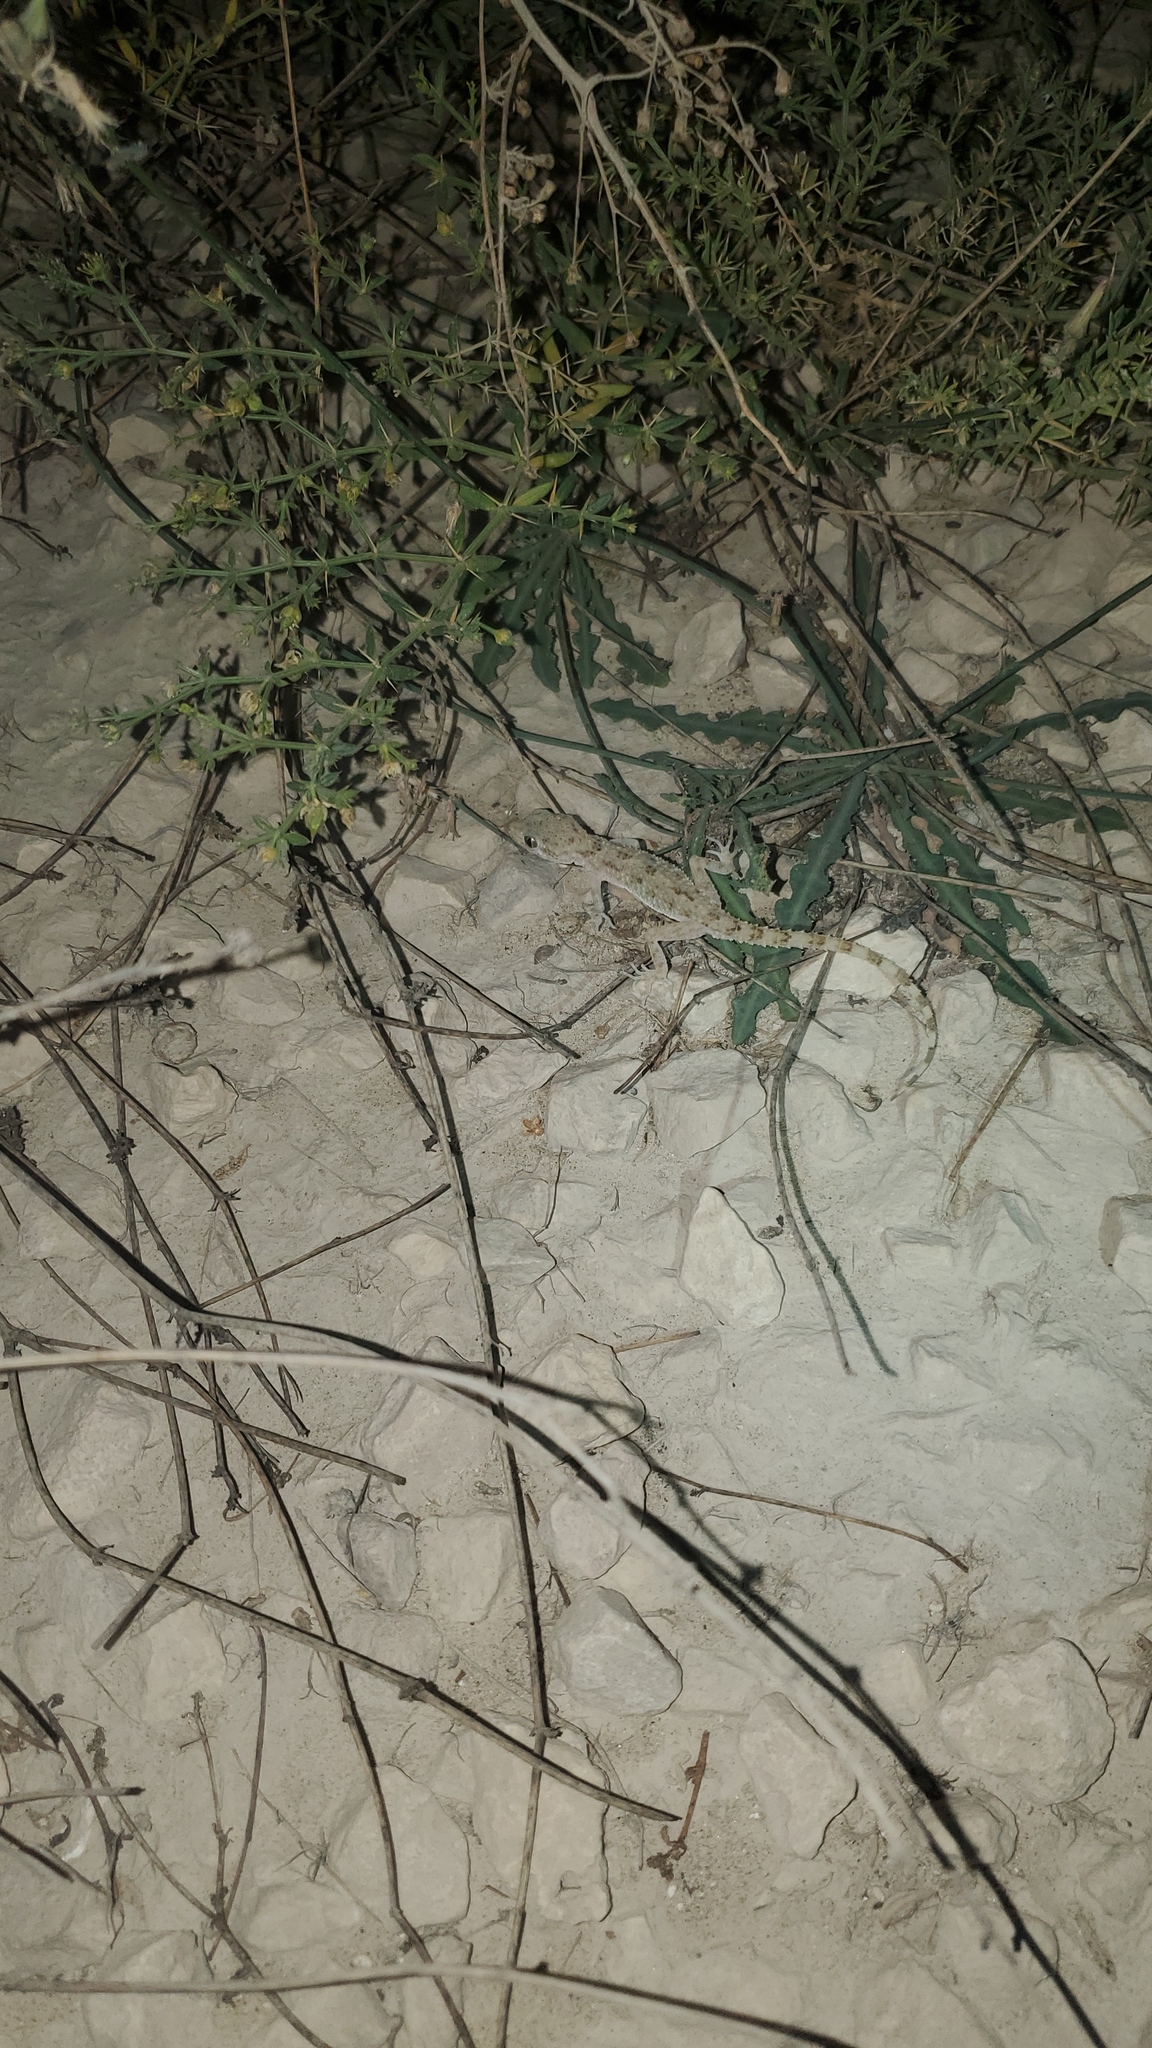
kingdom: Animalia
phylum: Chordata
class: Squamata
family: Gekkonidae
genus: Cyrtopodion
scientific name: Cyrtopodion scabrum
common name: Rough-tailed gecko
